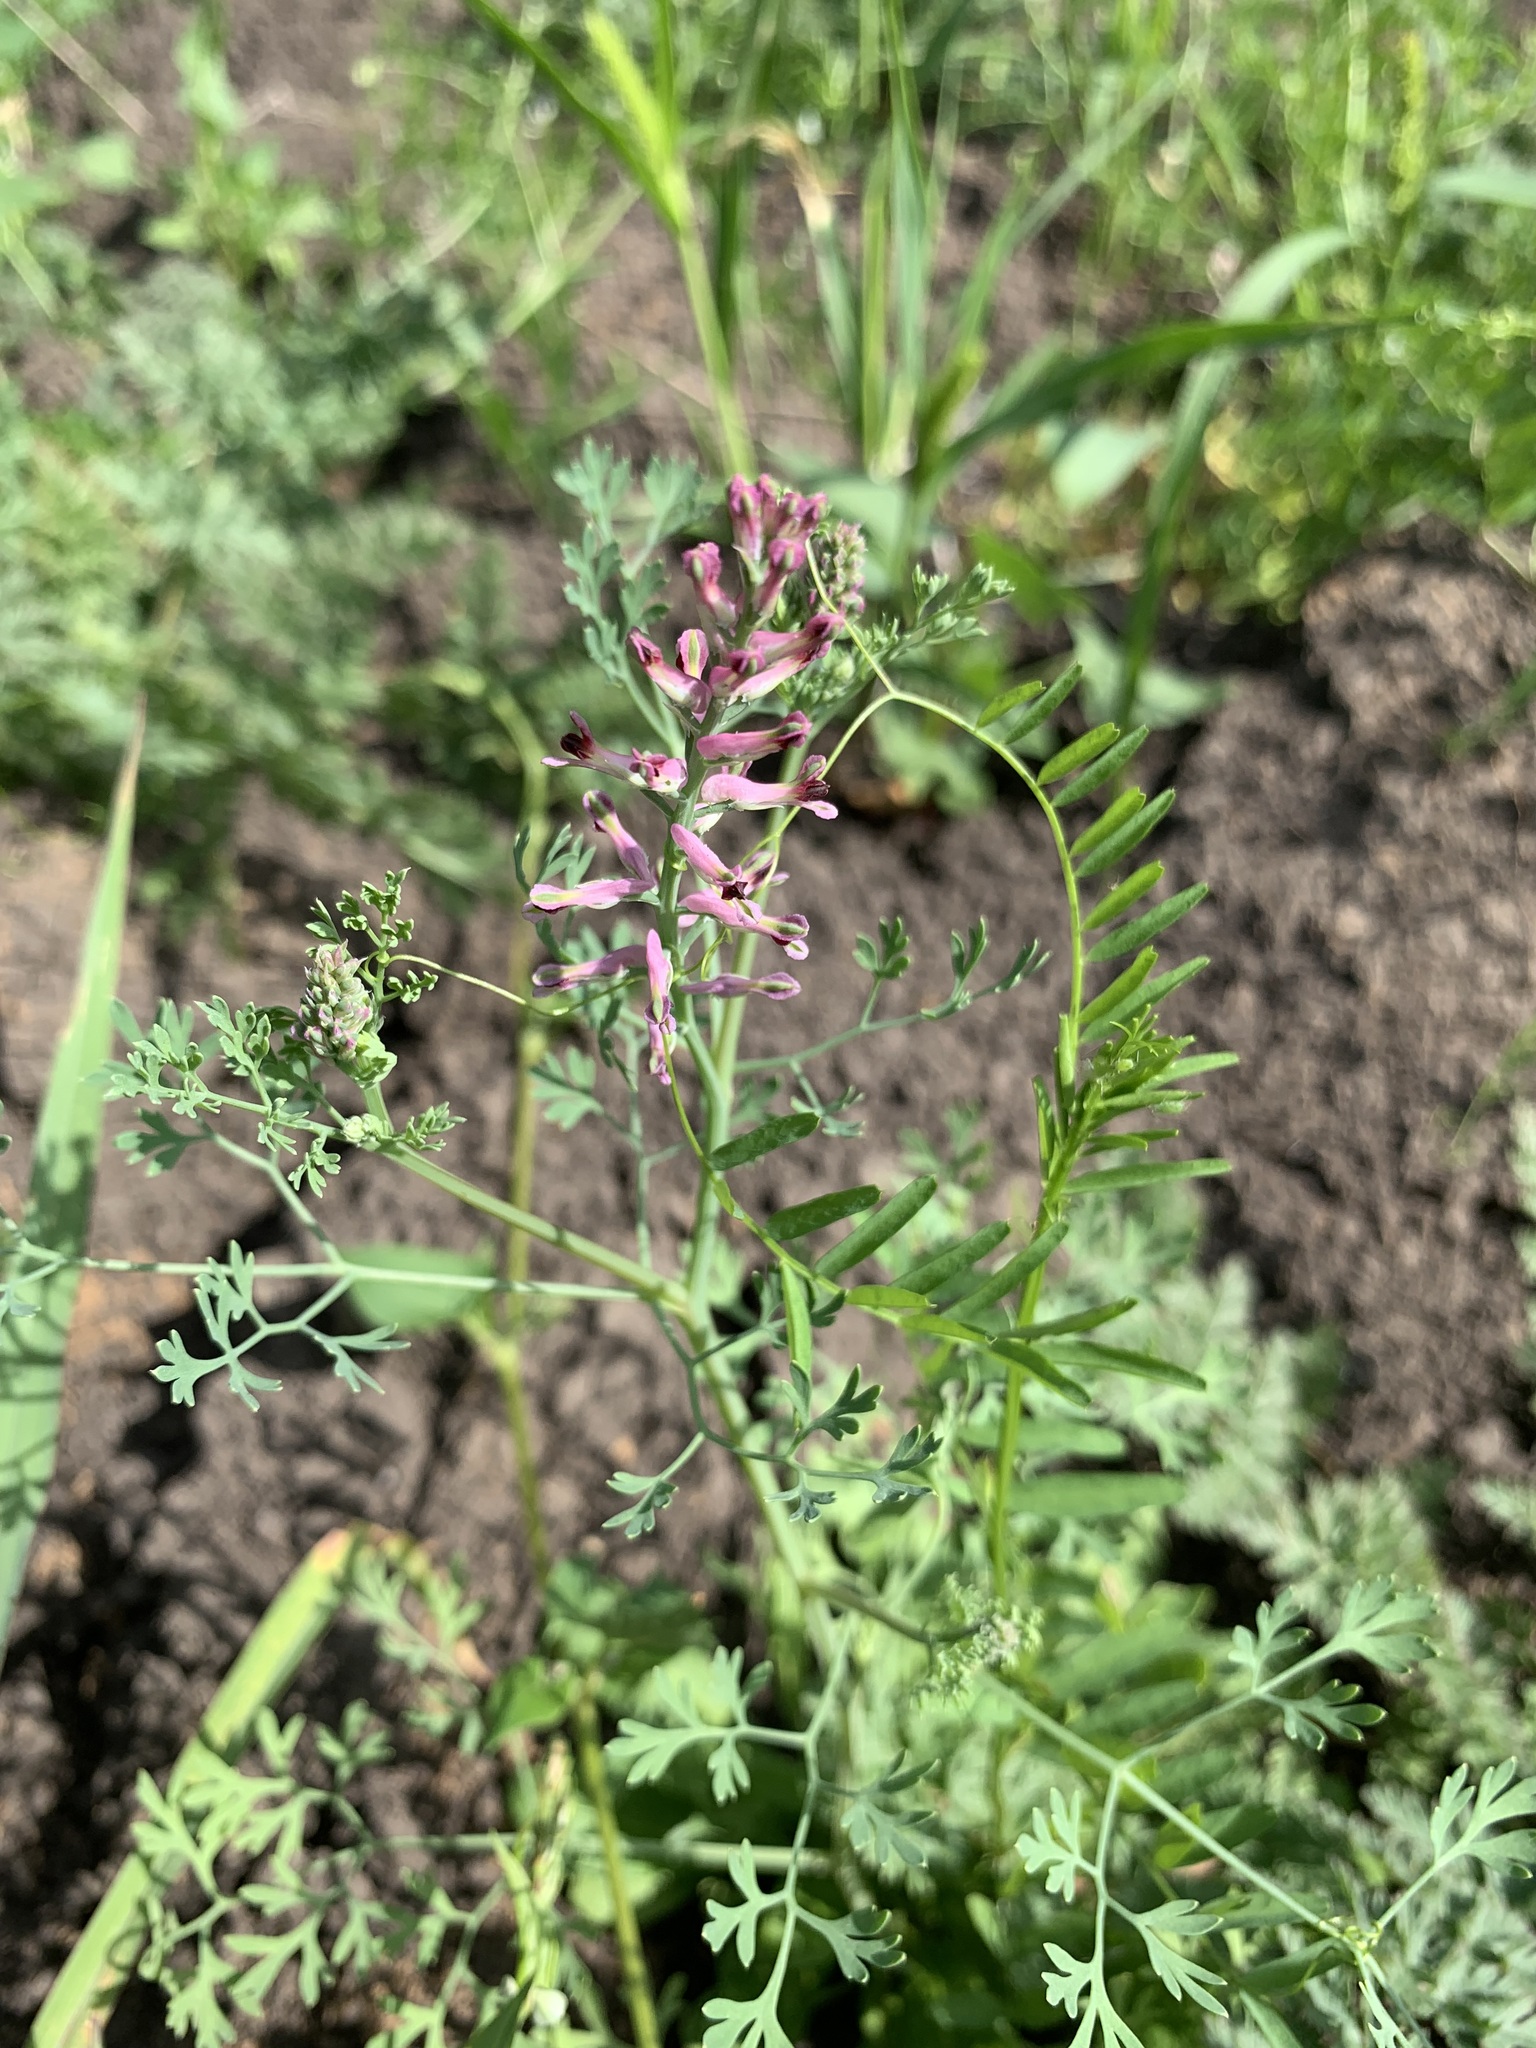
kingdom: Plantae
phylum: Tracheophyta
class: Magnoliopsida
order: Ranunculales
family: Papaveraceae
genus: Fumaria
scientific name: Fumaria officinalis
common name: Common fumitory
